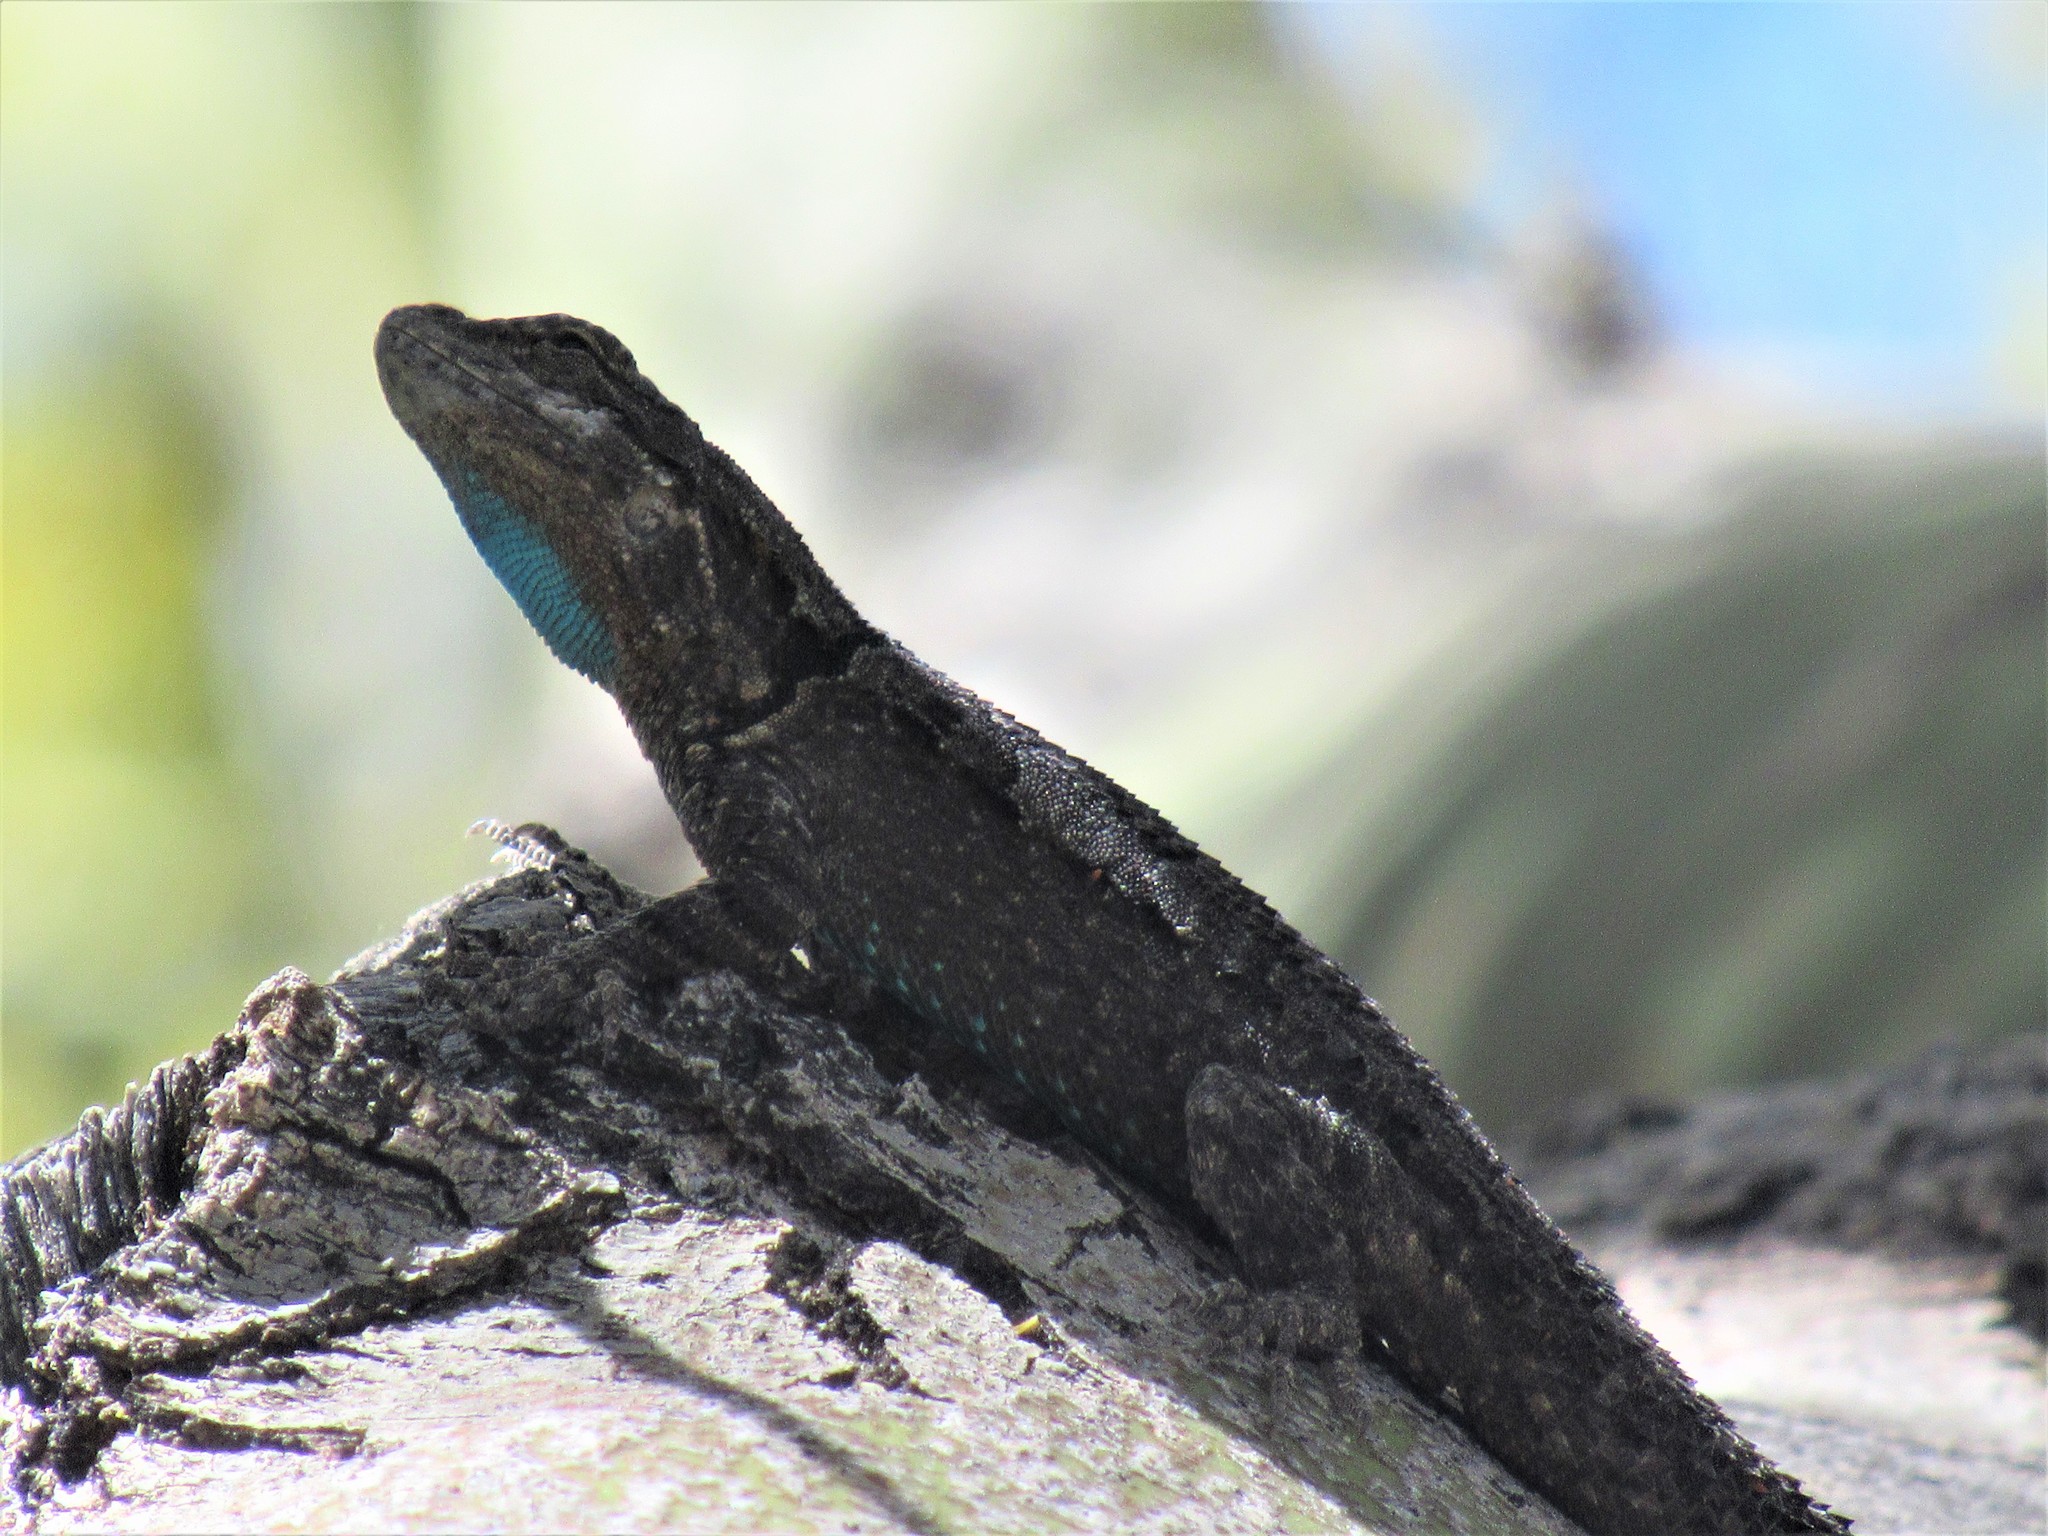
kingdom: Animalia
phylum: Chordata
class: Squamata
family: Phrynosomatidae
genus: Urosaurus
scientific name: Urosaurus ornatus
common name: Ornate tree lizard
